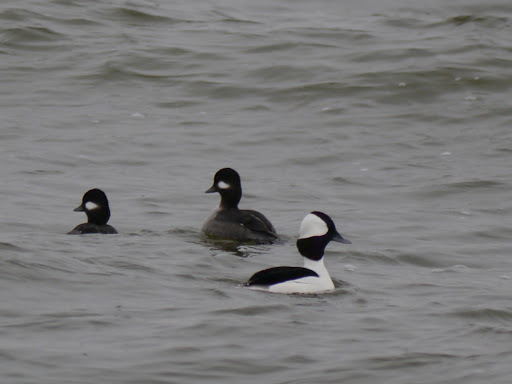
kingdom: Animalia
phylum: Chordata
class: Aves
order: Anseriformes
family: Anatidae
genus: Bucephala
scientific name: Bucephala albeola
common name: Bufflehead
